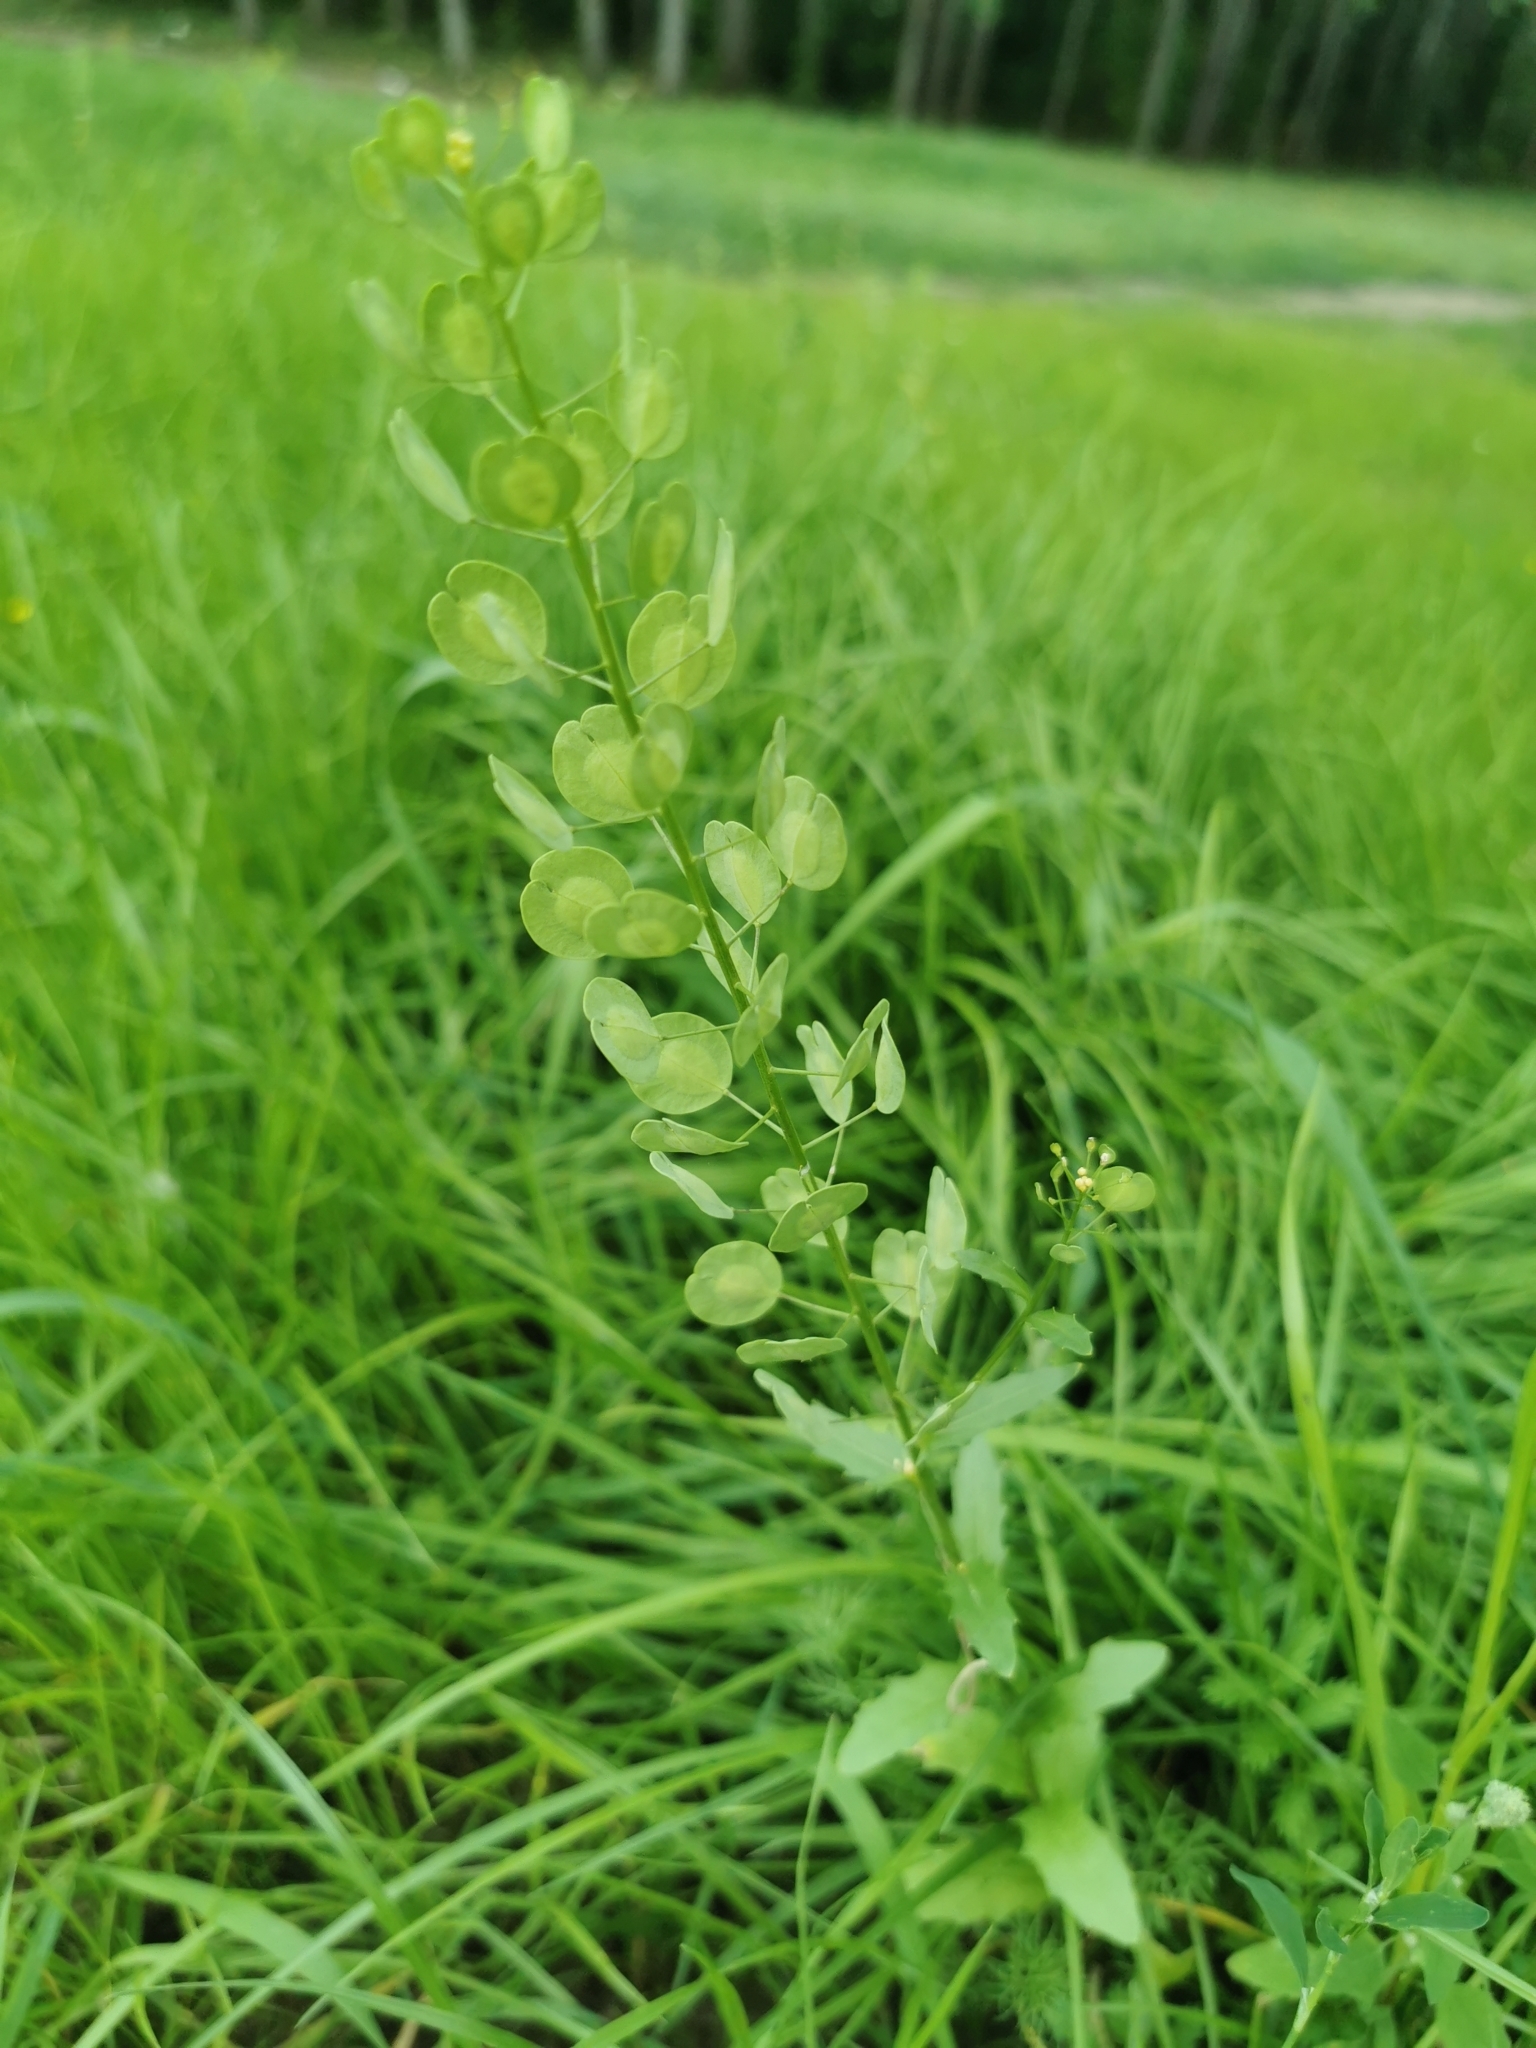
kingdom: Plantae
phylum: Tracheophyta
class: Magnoliopsida
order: Brassicales
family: Brassicaceae
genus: Thlaspi
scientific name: Thlaspi arvense
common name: Field pennycress
